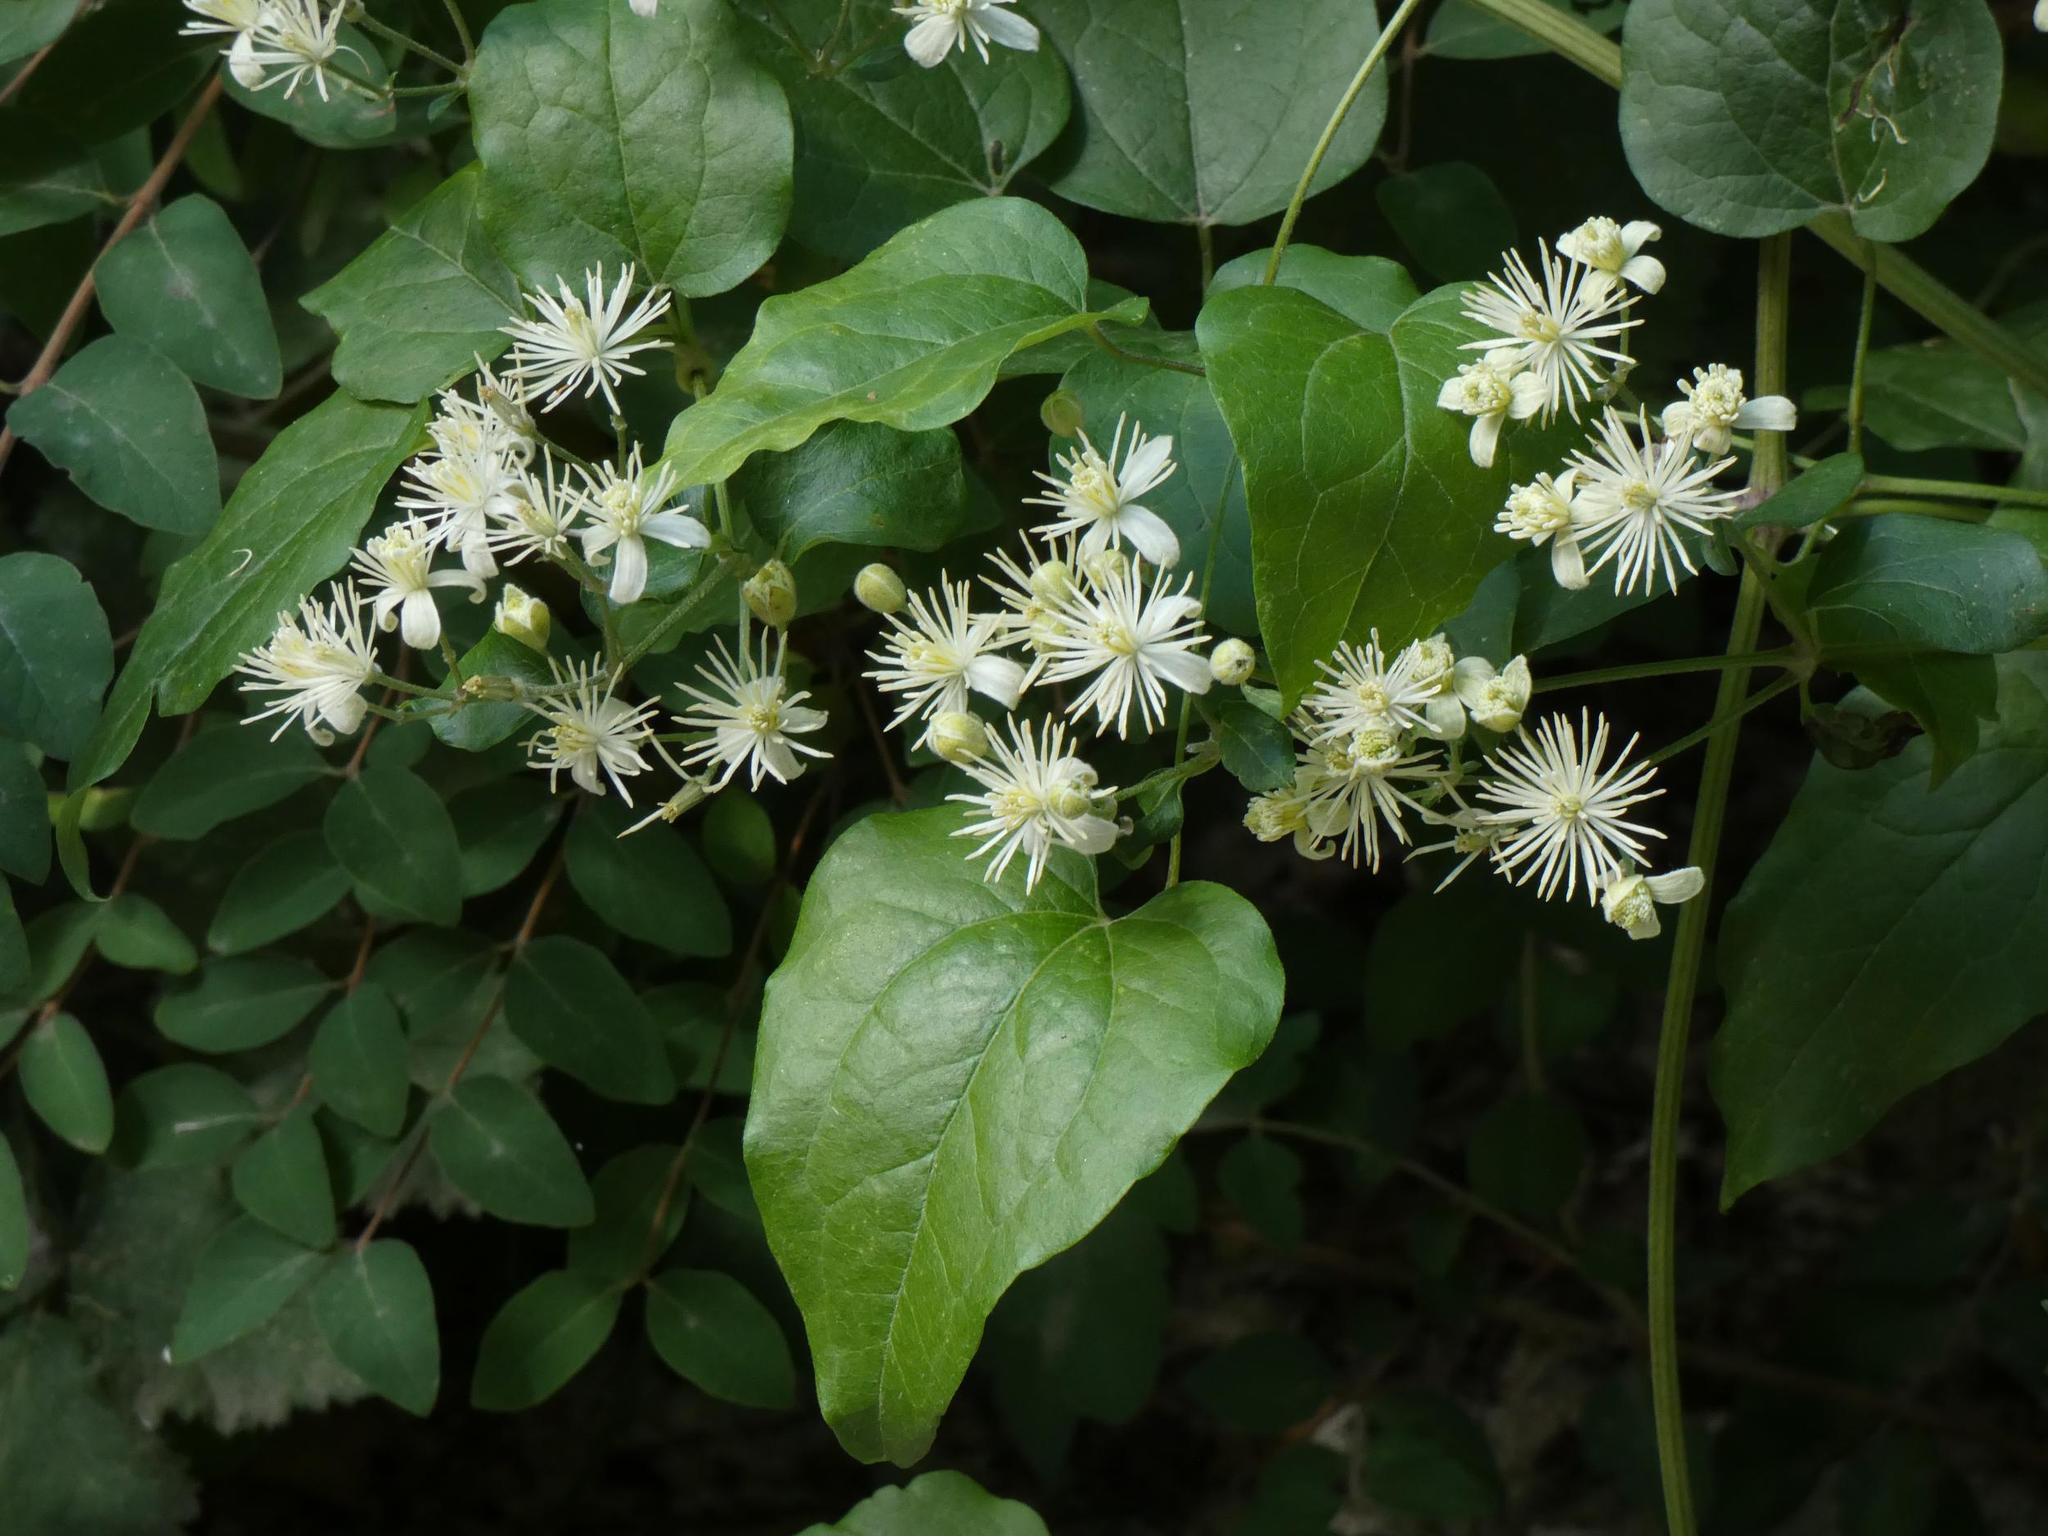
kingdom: Plantae
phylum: Tracheophyta
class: Magnoliopsida
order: Ranunculales
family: Ranunculaceae
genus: Clematis
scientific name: Clematis vitalba
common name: Evergreen clematis
